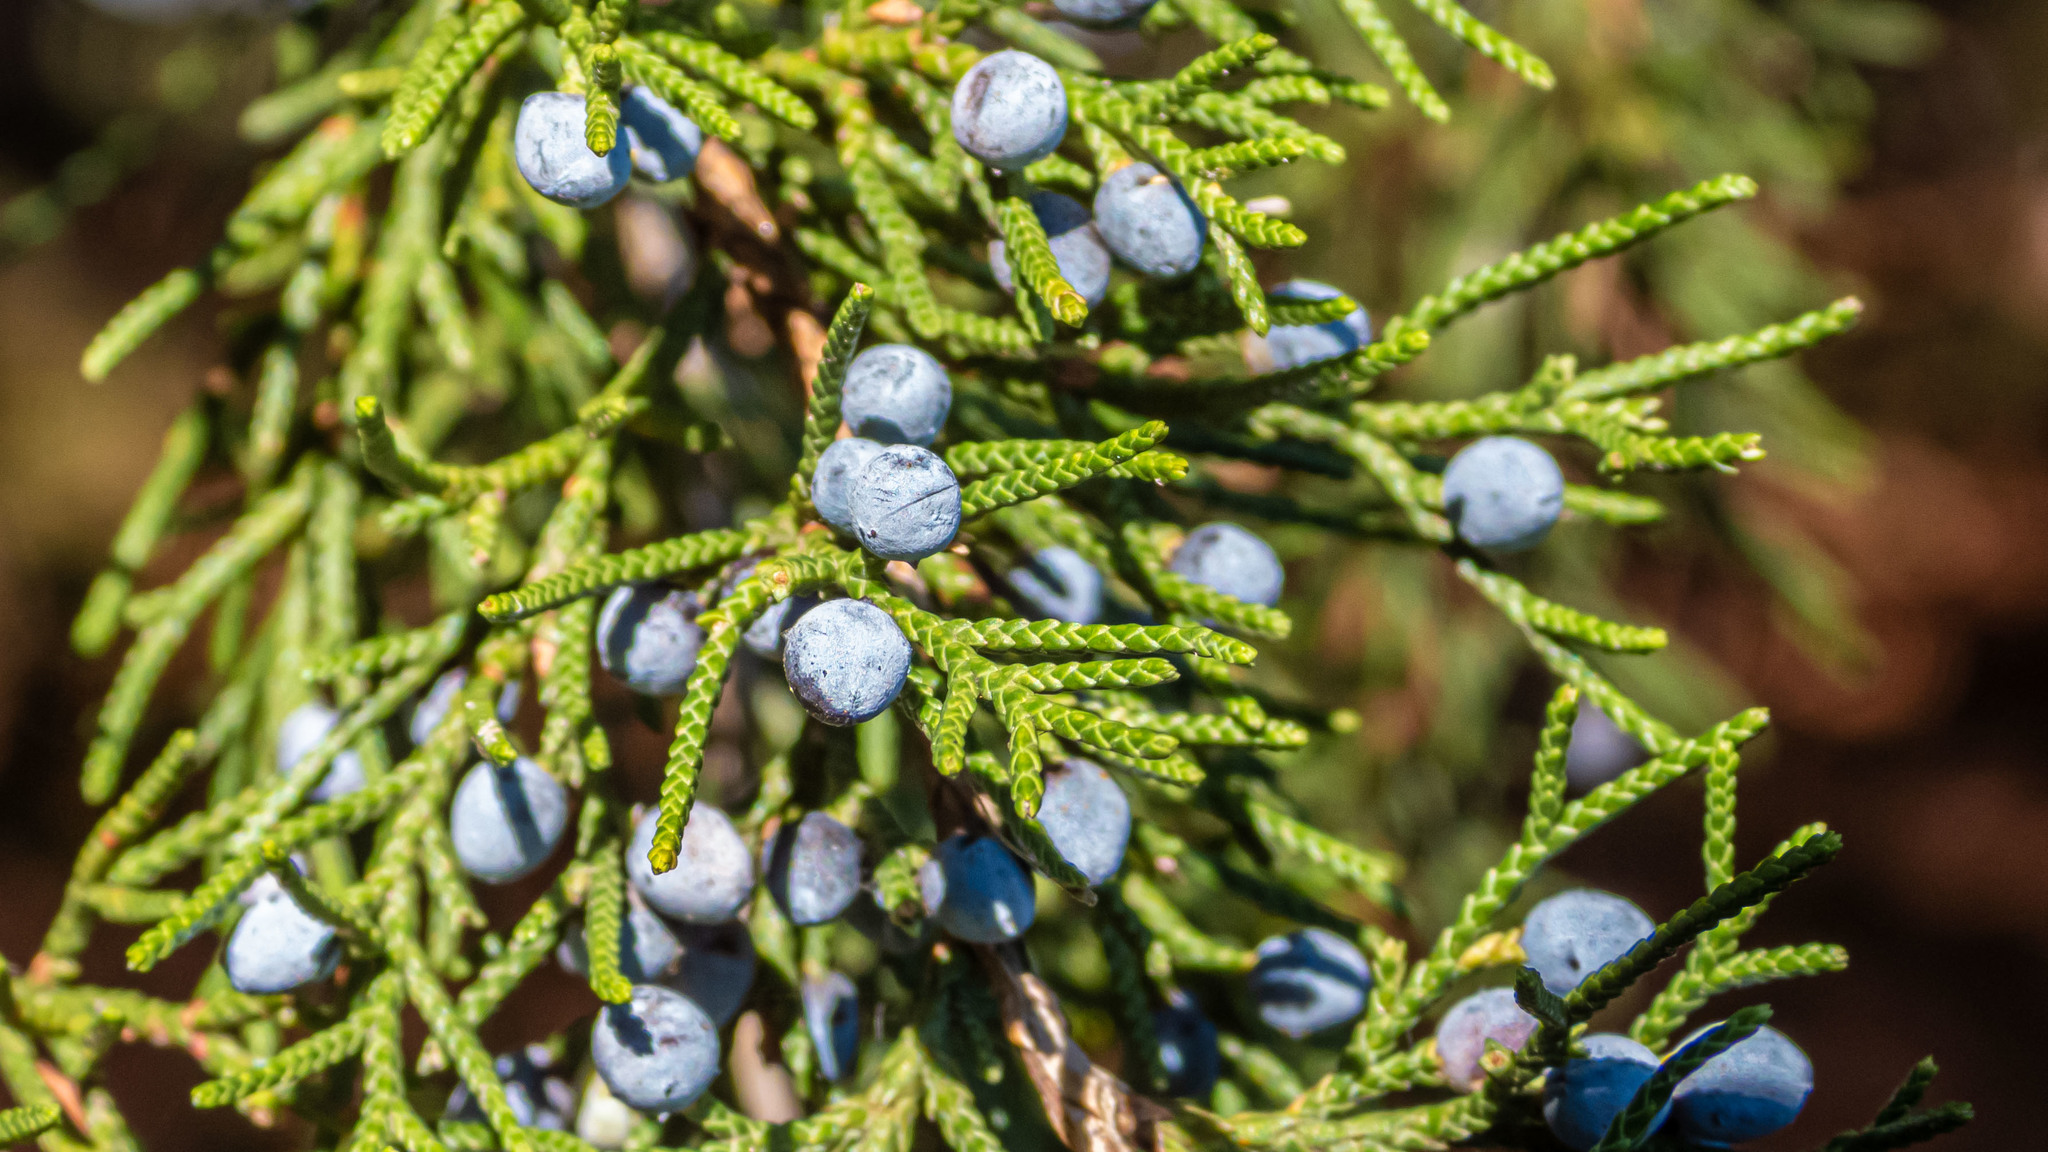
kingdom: Plantae
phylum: Tracheophyta
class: Pinopsida
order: Pinales
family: Cupressaceae
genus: Juniperus
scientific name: Juniperus virginiana
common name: Red juniper
